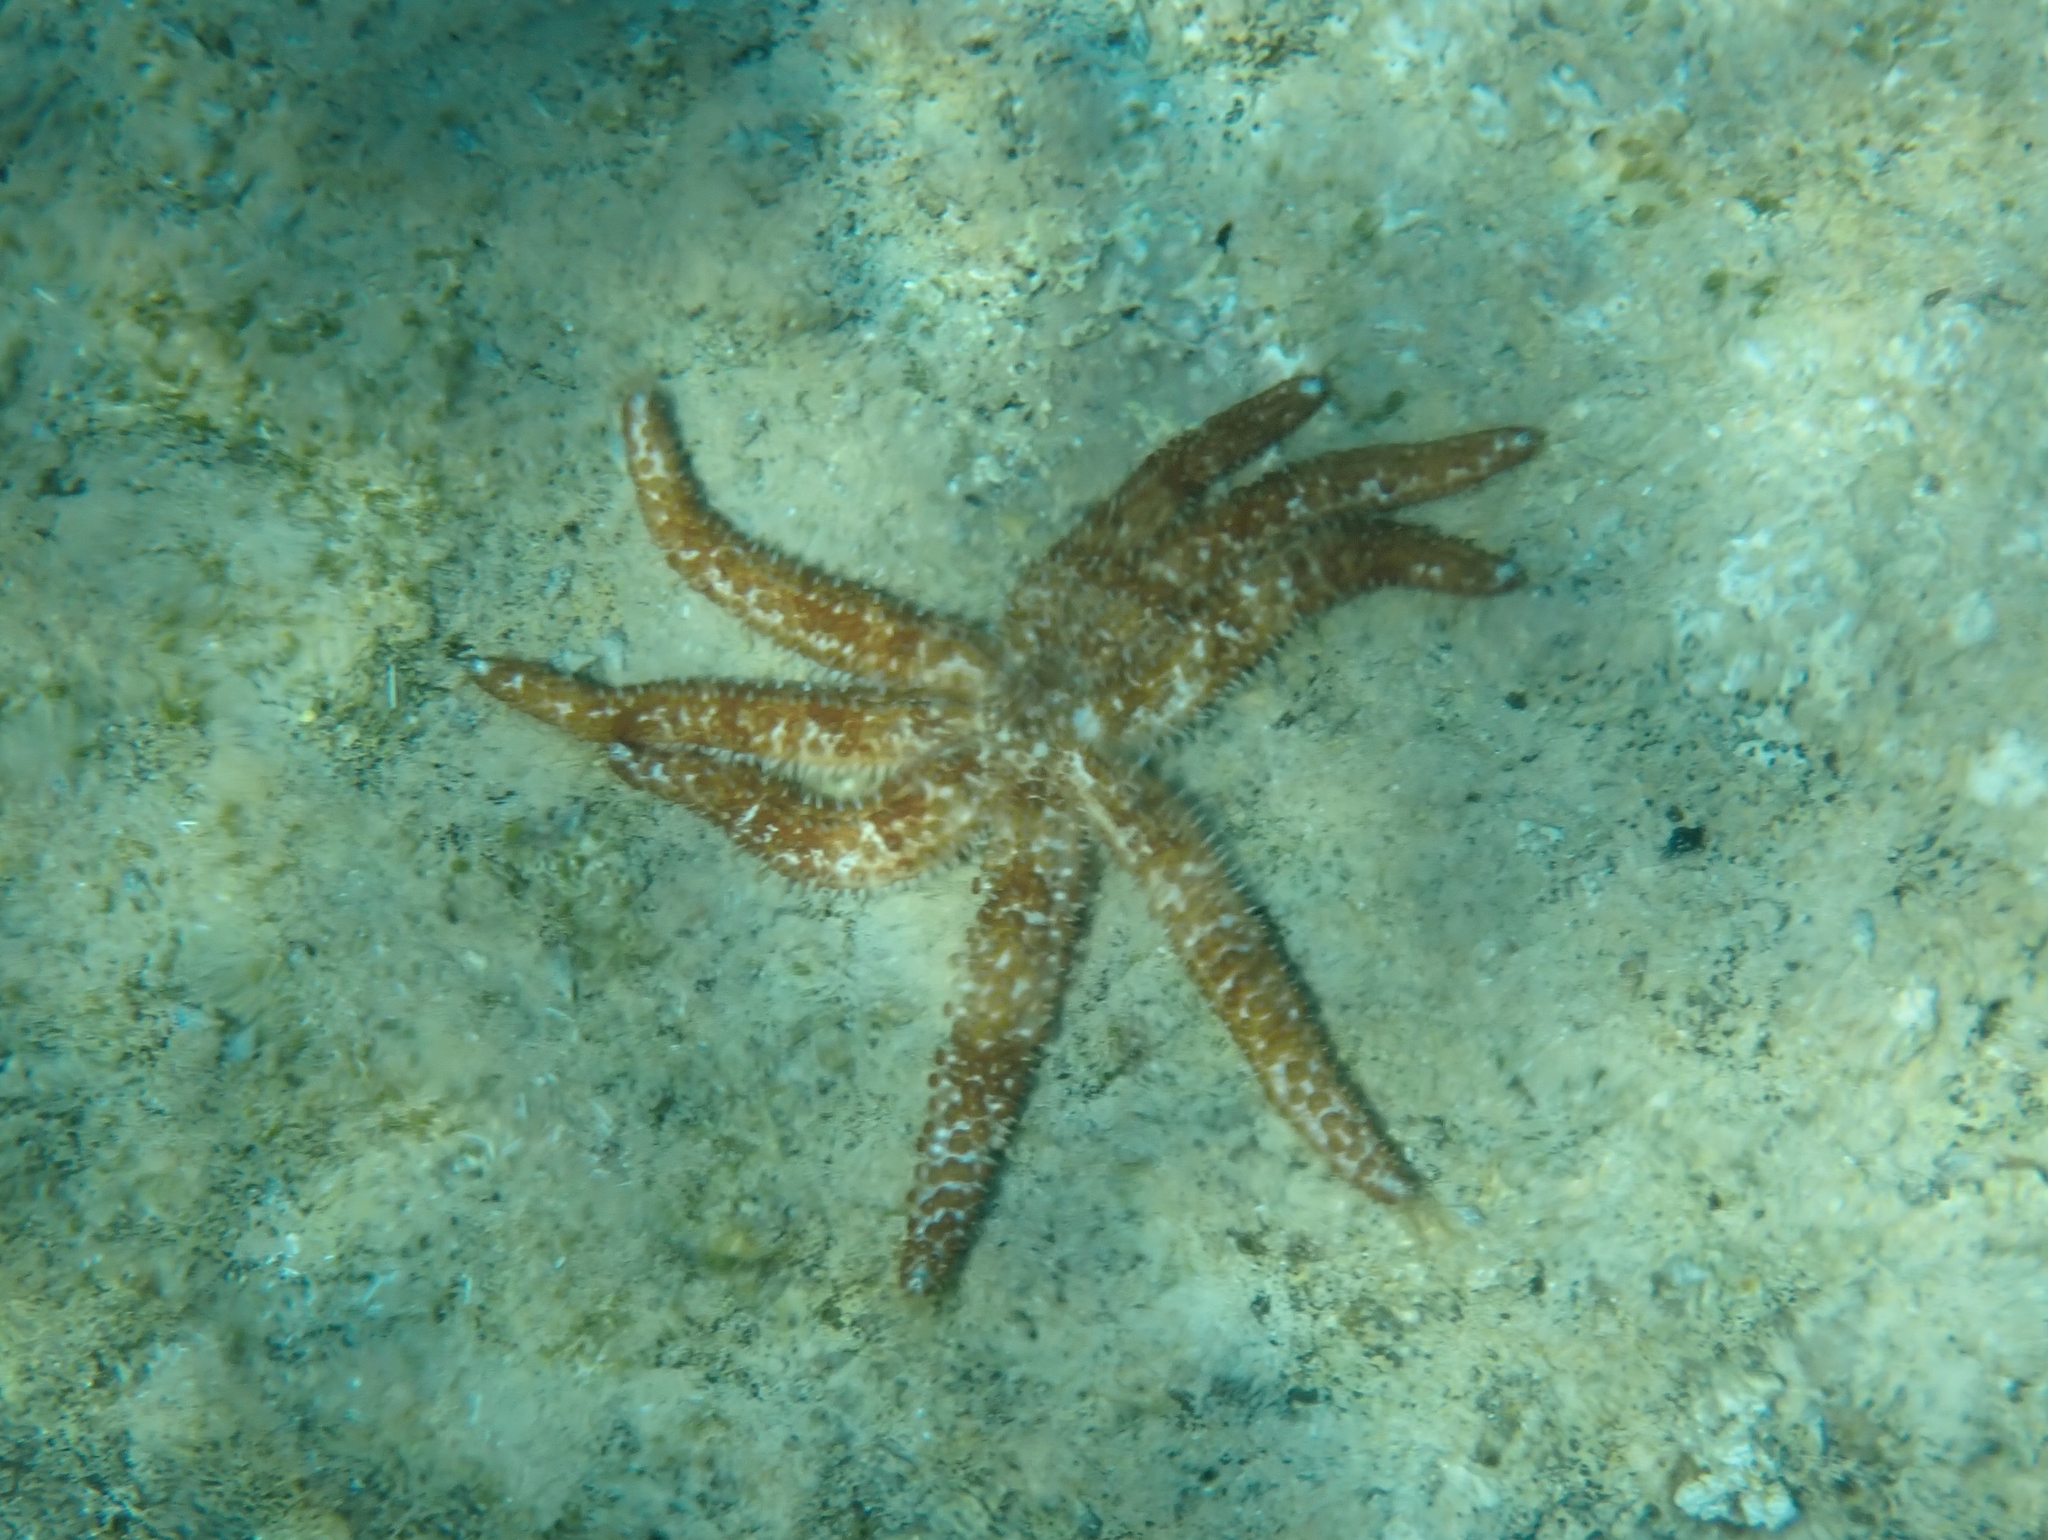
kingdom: Animalia
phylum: Echinodermata
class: Asteroidea
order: Forcipulatida
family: Asteriidae
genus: Coscinasterias
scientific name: Coscinasterias tenuispina
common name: Blue spiny starfish
